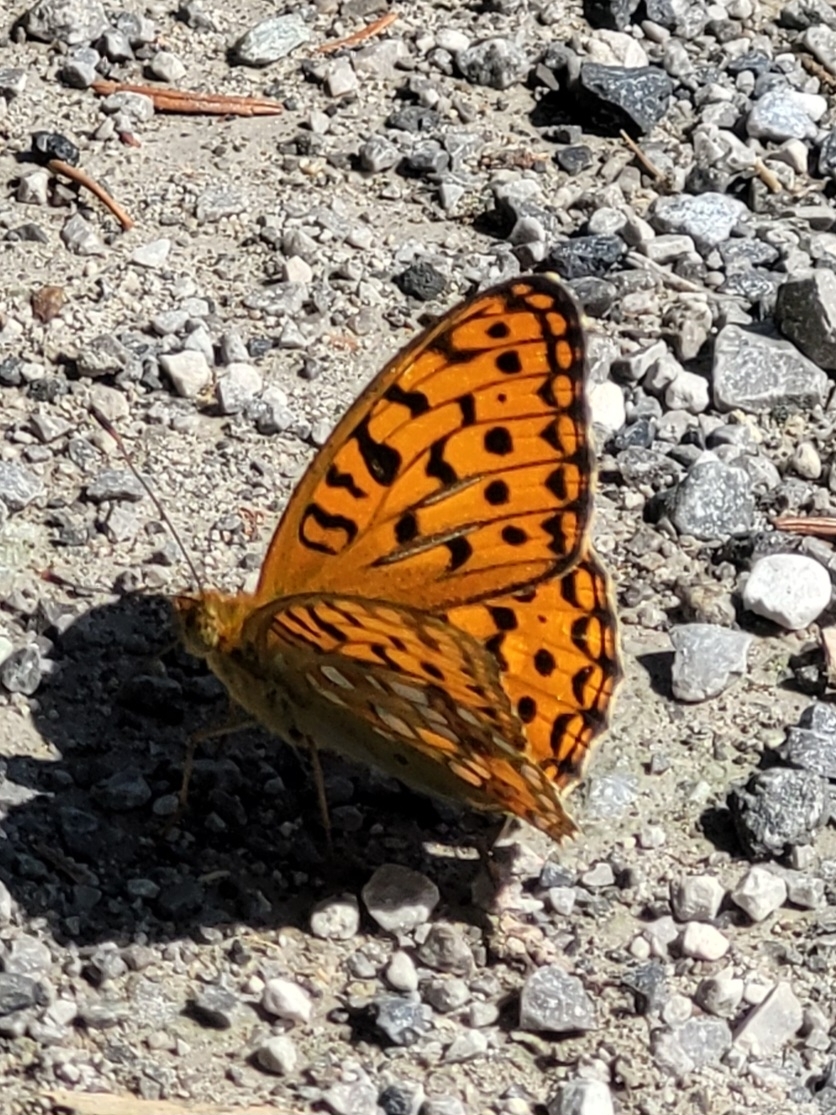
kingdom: Animalia
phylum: Arthropoda
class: Insecta
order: Lepidoptera
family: Nymphalidae
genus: Fabriciana
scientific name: Fabriciana adippe
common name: High brown fritillary
